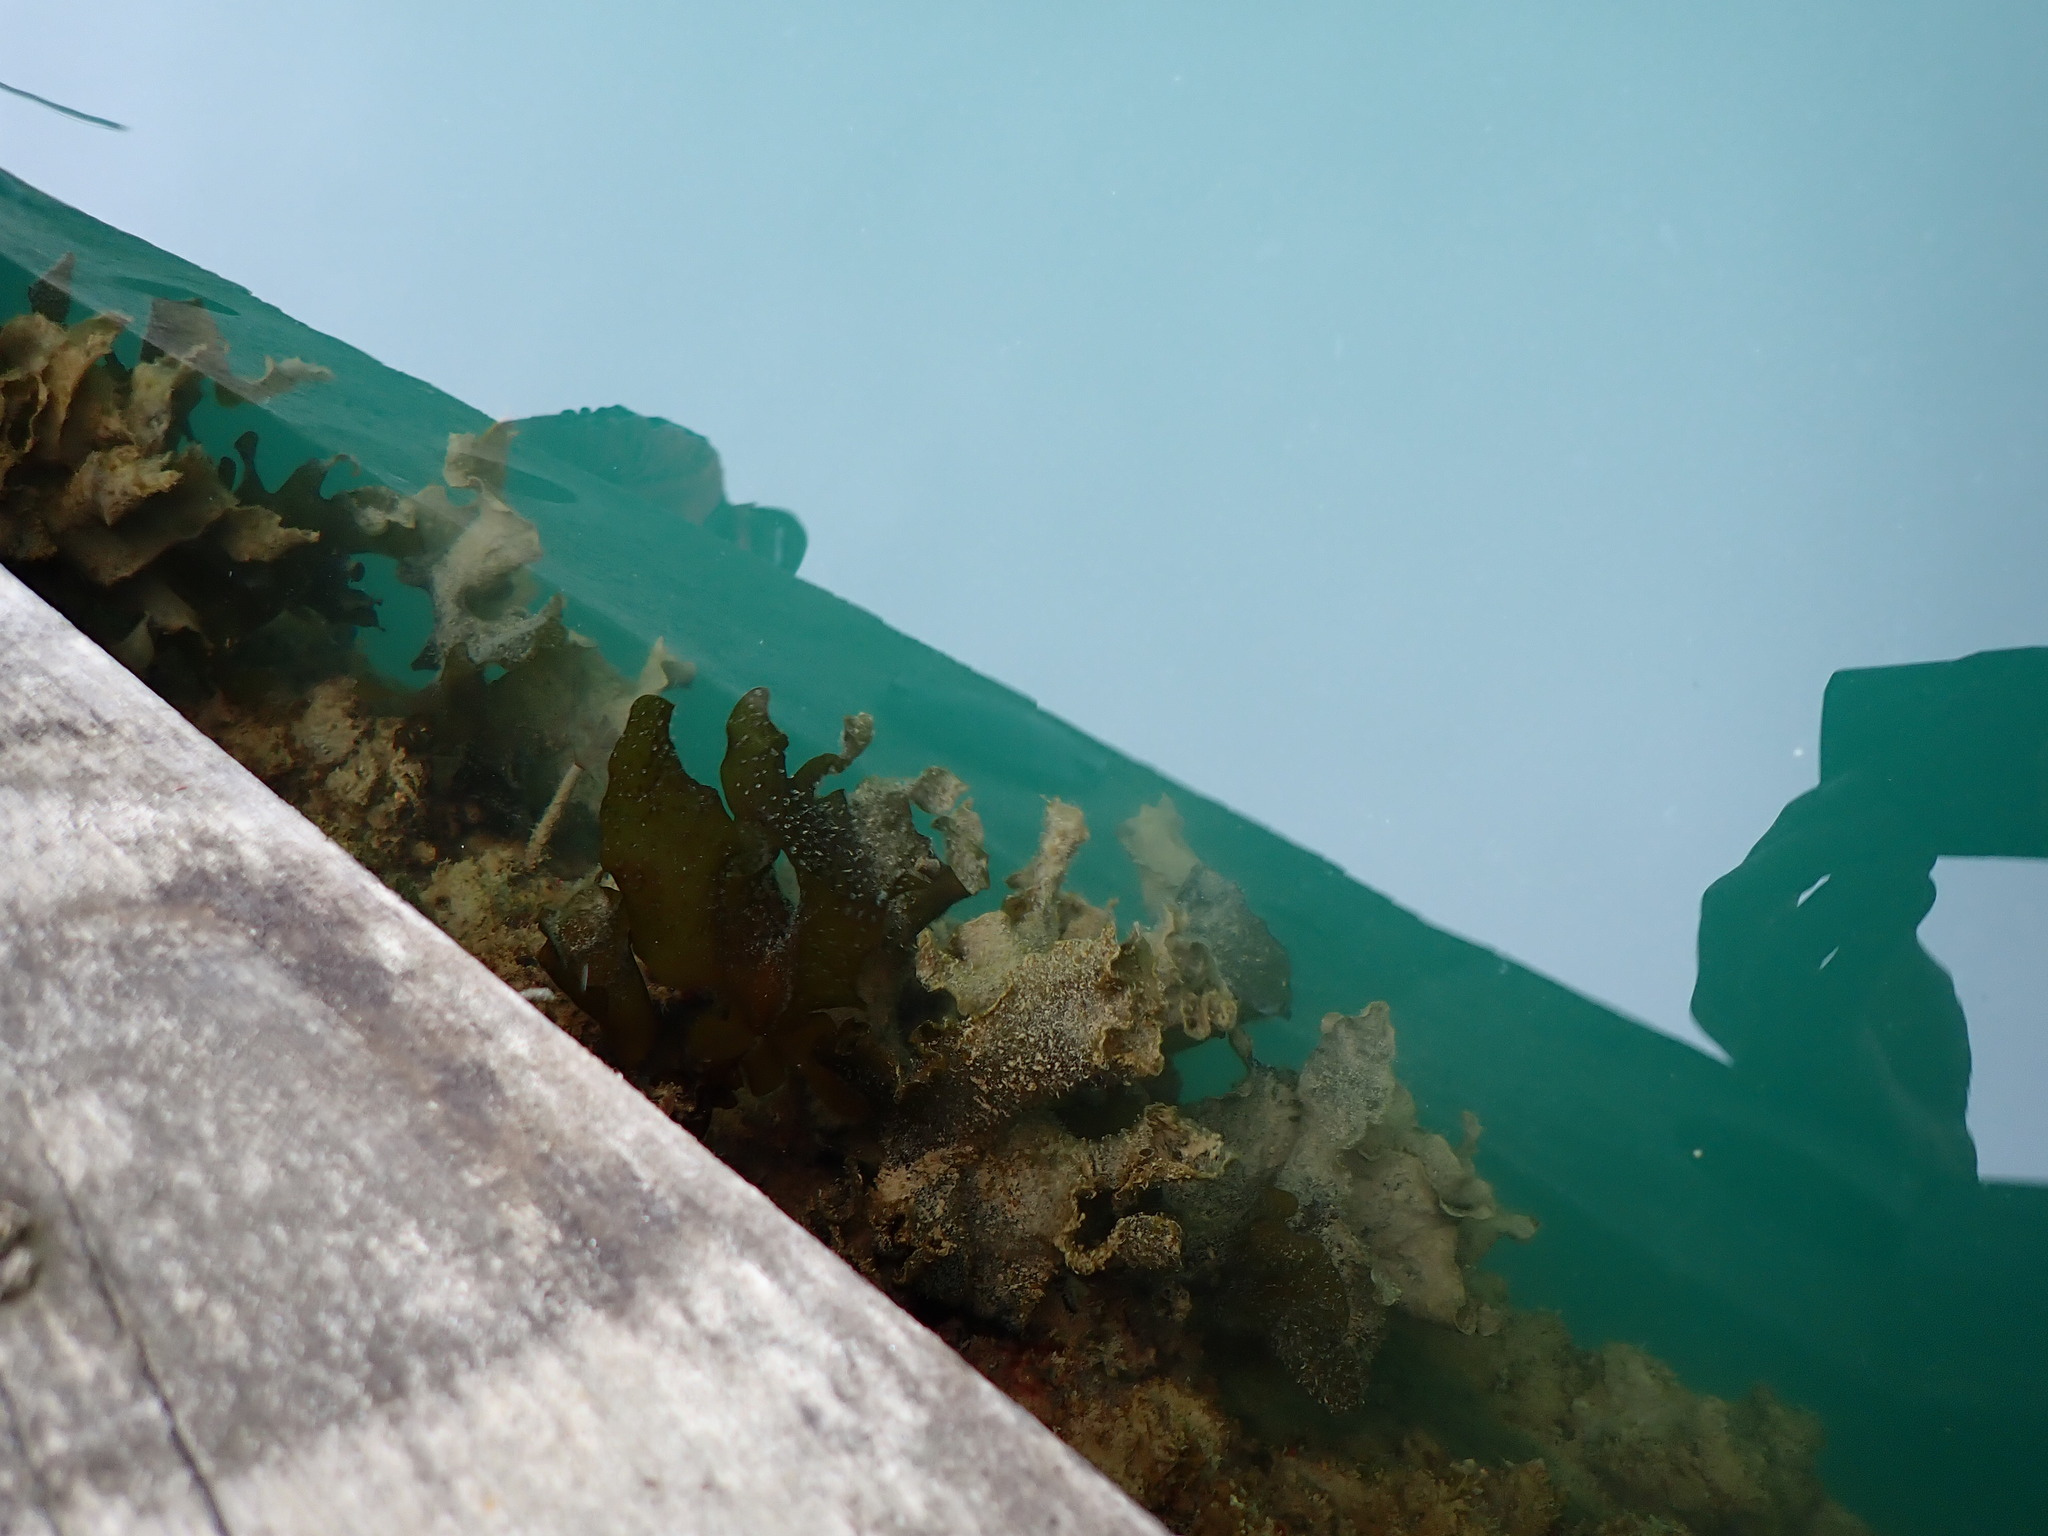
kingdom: Chromista
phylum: Ochrophyta
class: Phaeophyceae
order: Laminariales
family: Lessoniaceae
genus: Ecklonia
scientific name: Ecklonia radiata
